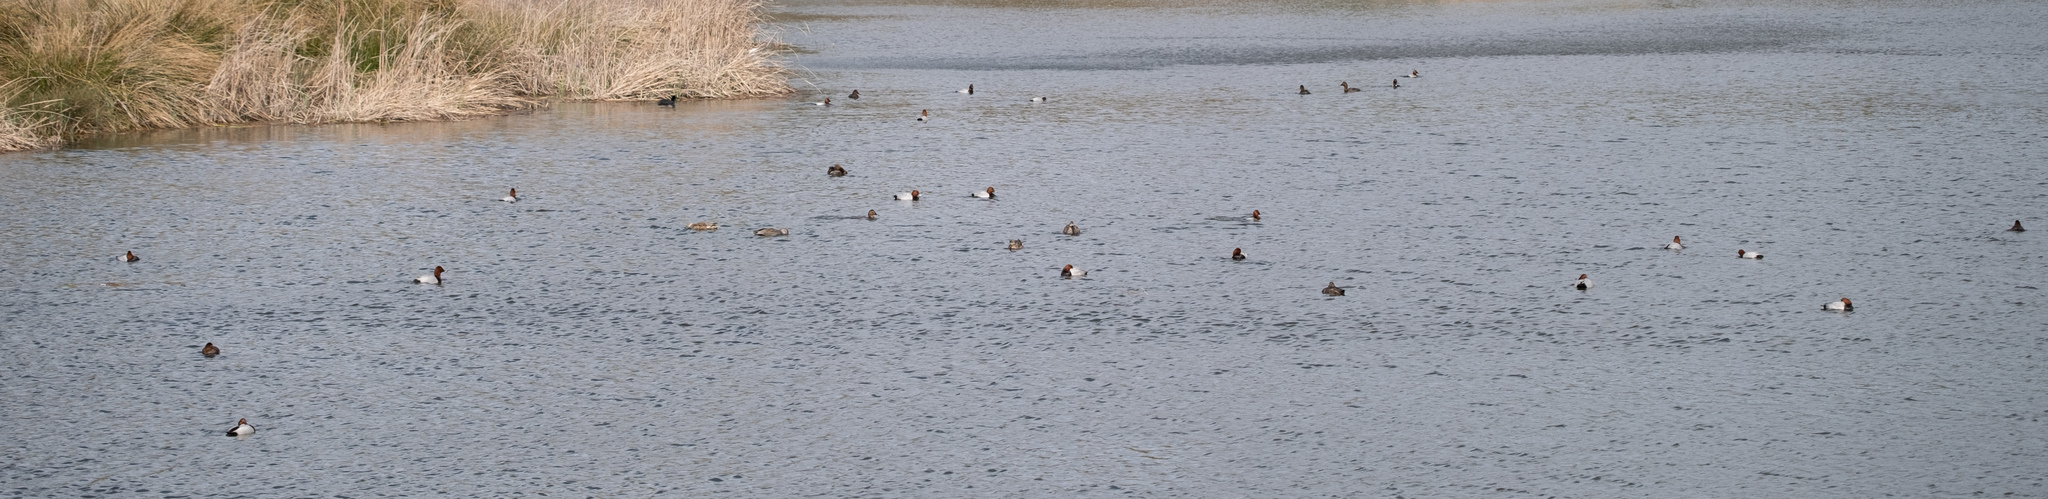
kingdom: Animalia
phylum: Chordata
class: Aves
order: Anseriformes
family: Anatidae
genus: Aythya
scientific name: Aythya ferina
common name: Common pochard
